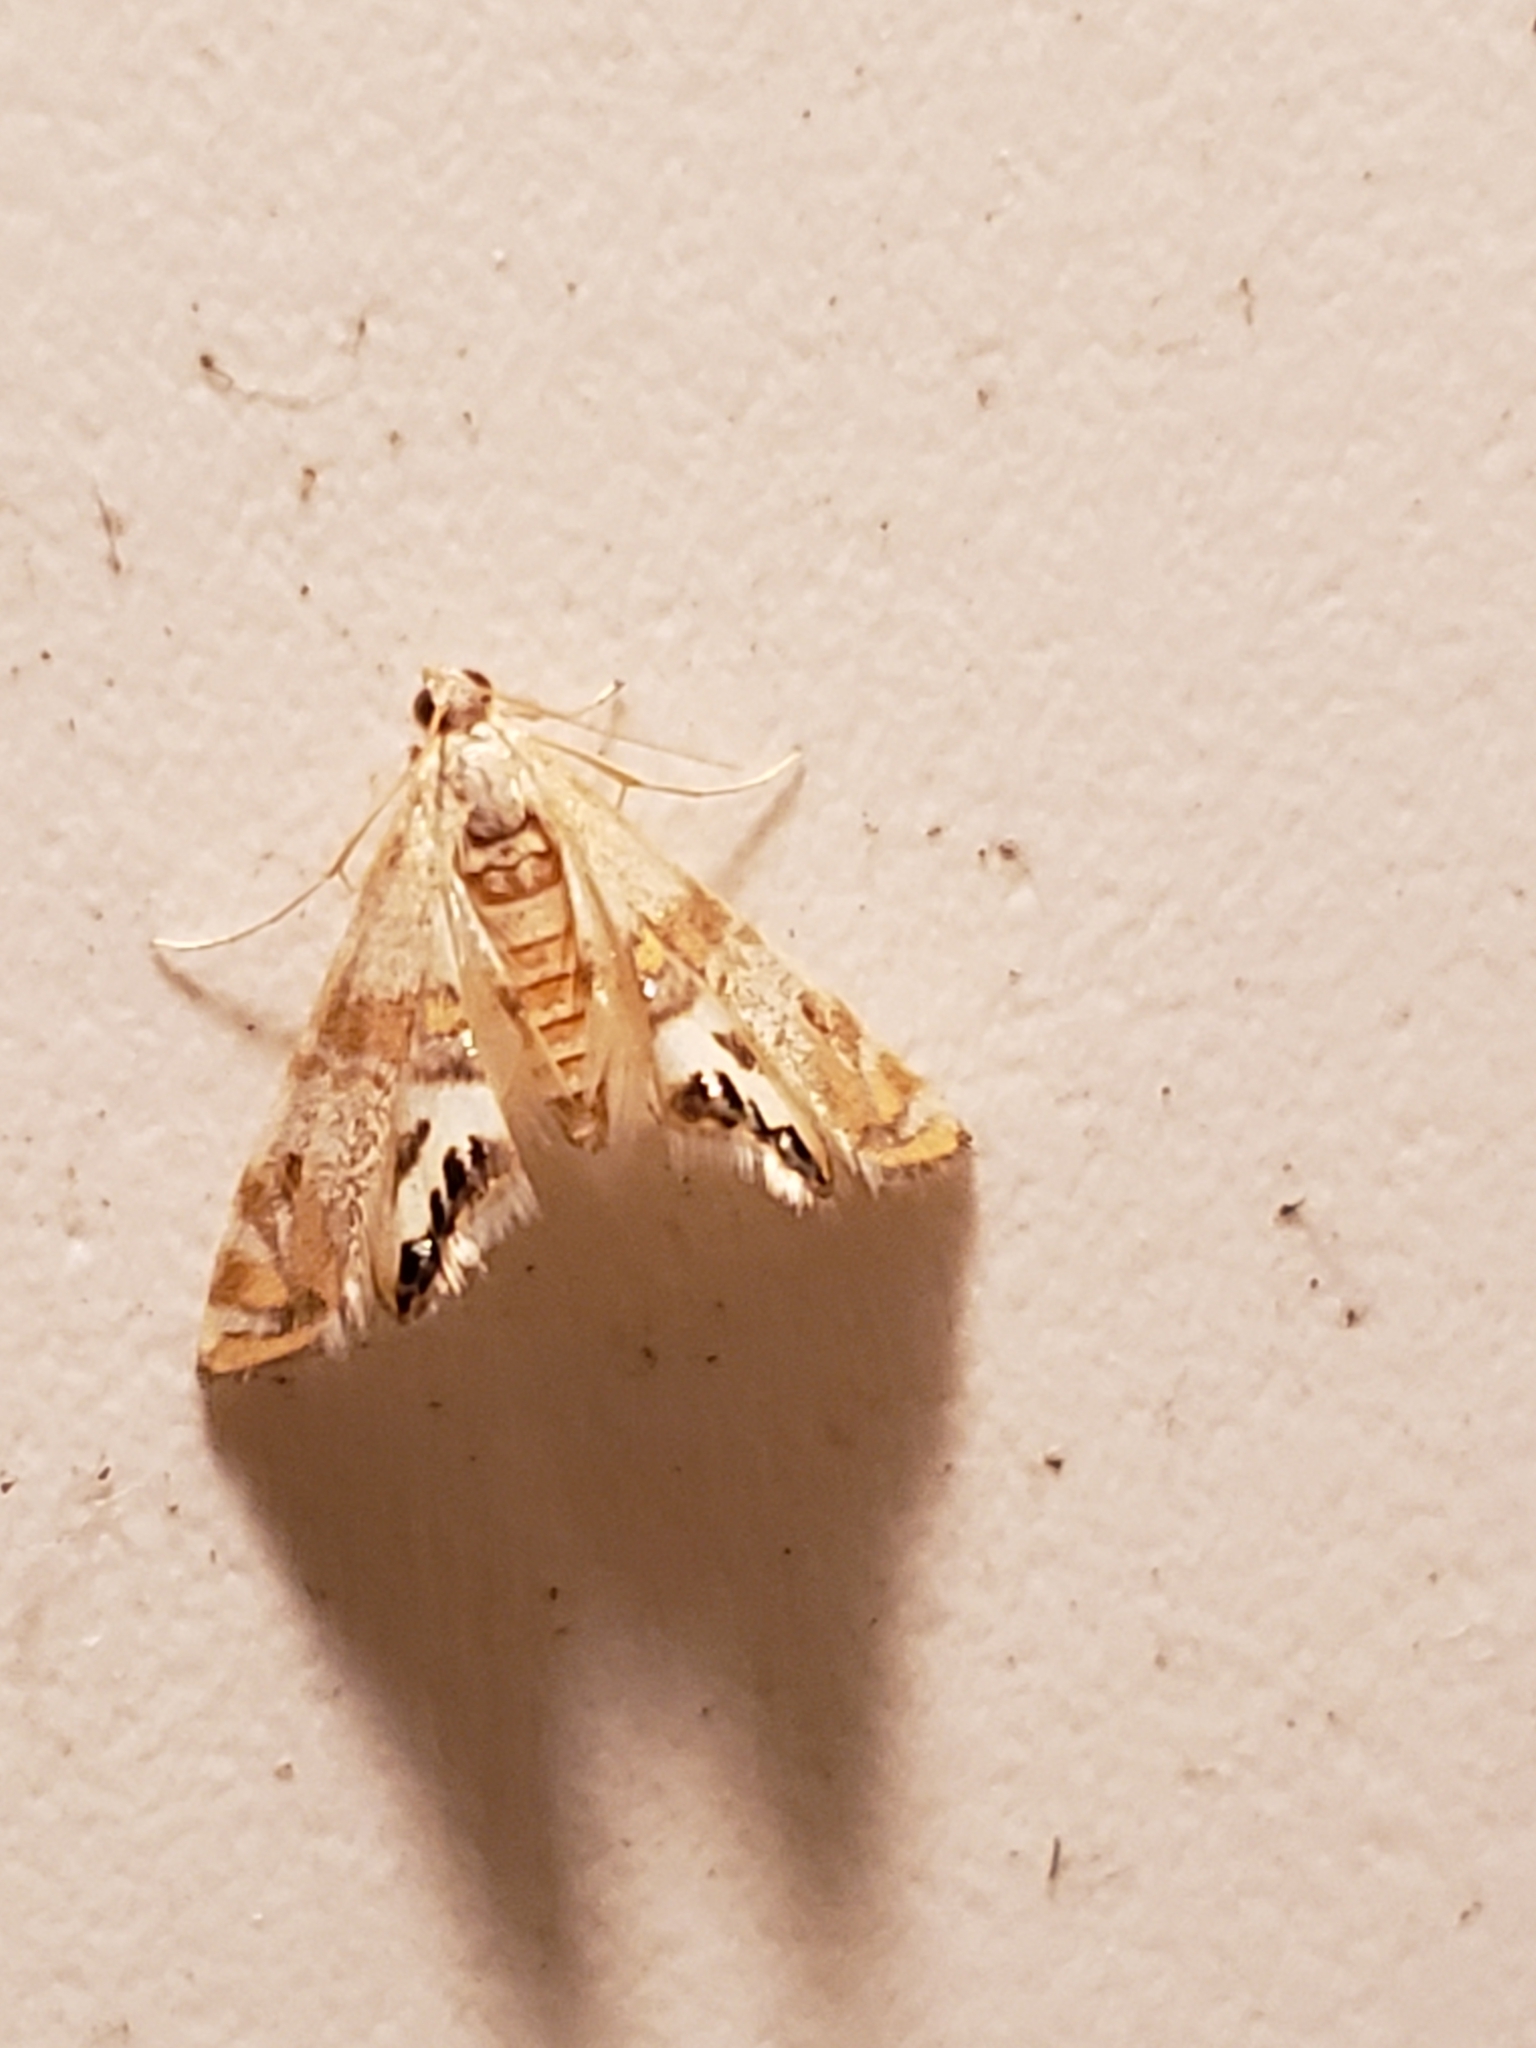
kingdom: Animalia
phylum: Arthropoda
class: Insecta
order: Lepidoptera
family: Crambidae
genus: Petrophila
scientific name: Petrophila bifascialis
